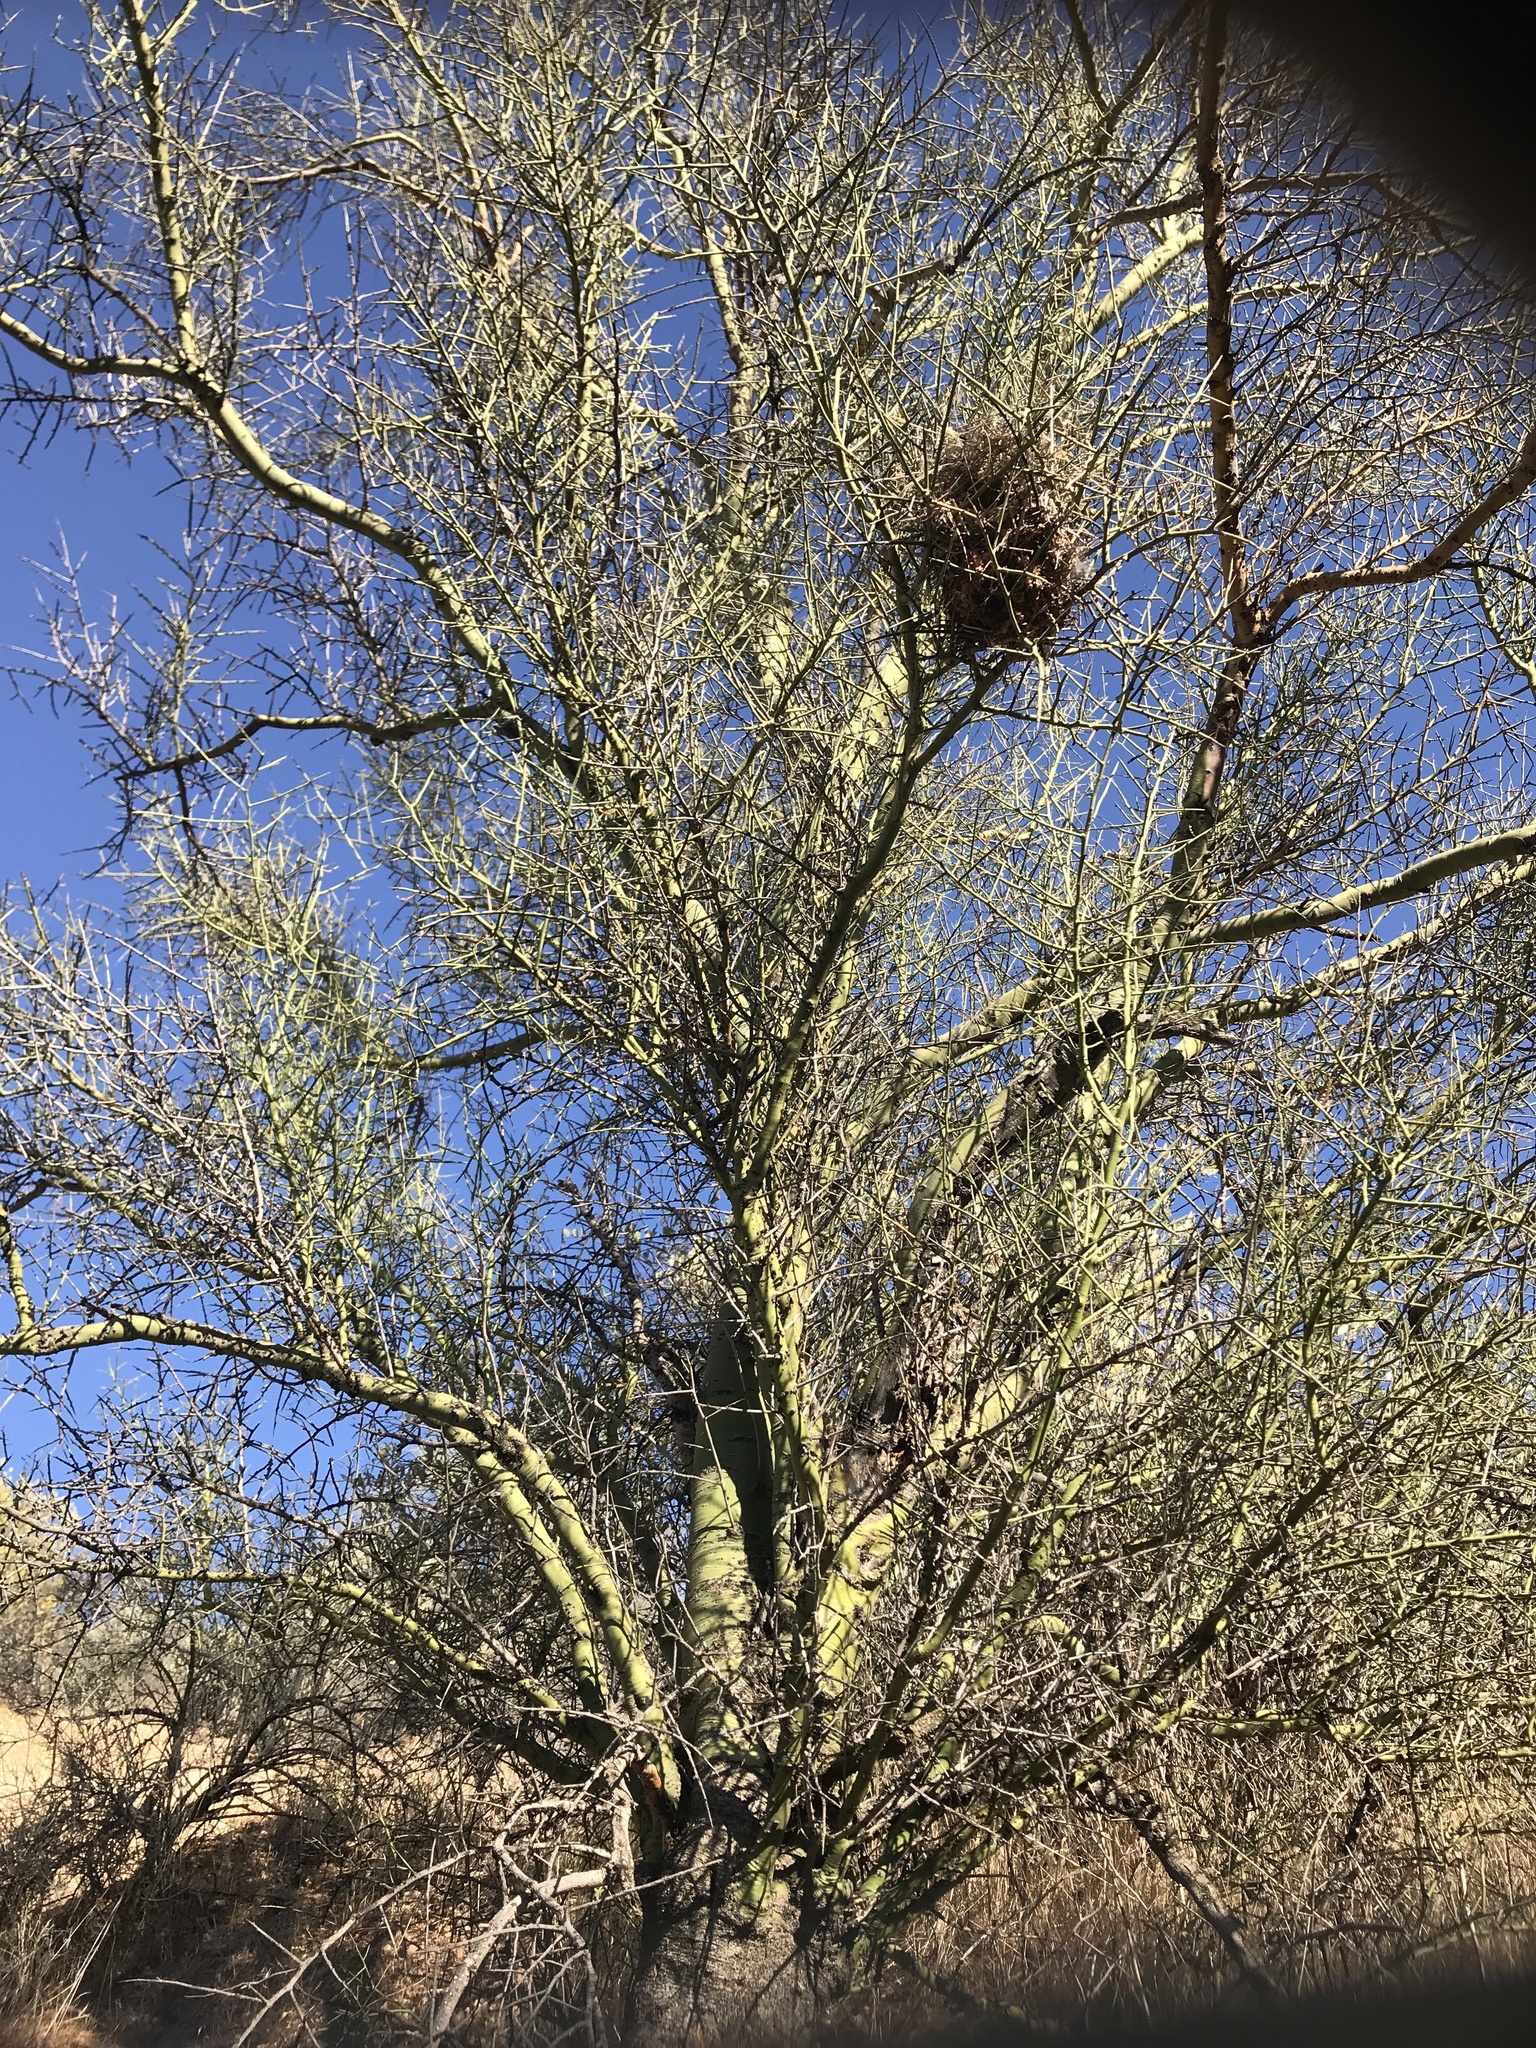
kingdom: Plantae
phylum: Tracheophyta
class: Magnoliopsida
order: Fabales
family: Fabaceae
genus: Parkinsonia
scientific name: Parkinsonia microphylla
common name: Yellow paloverde
